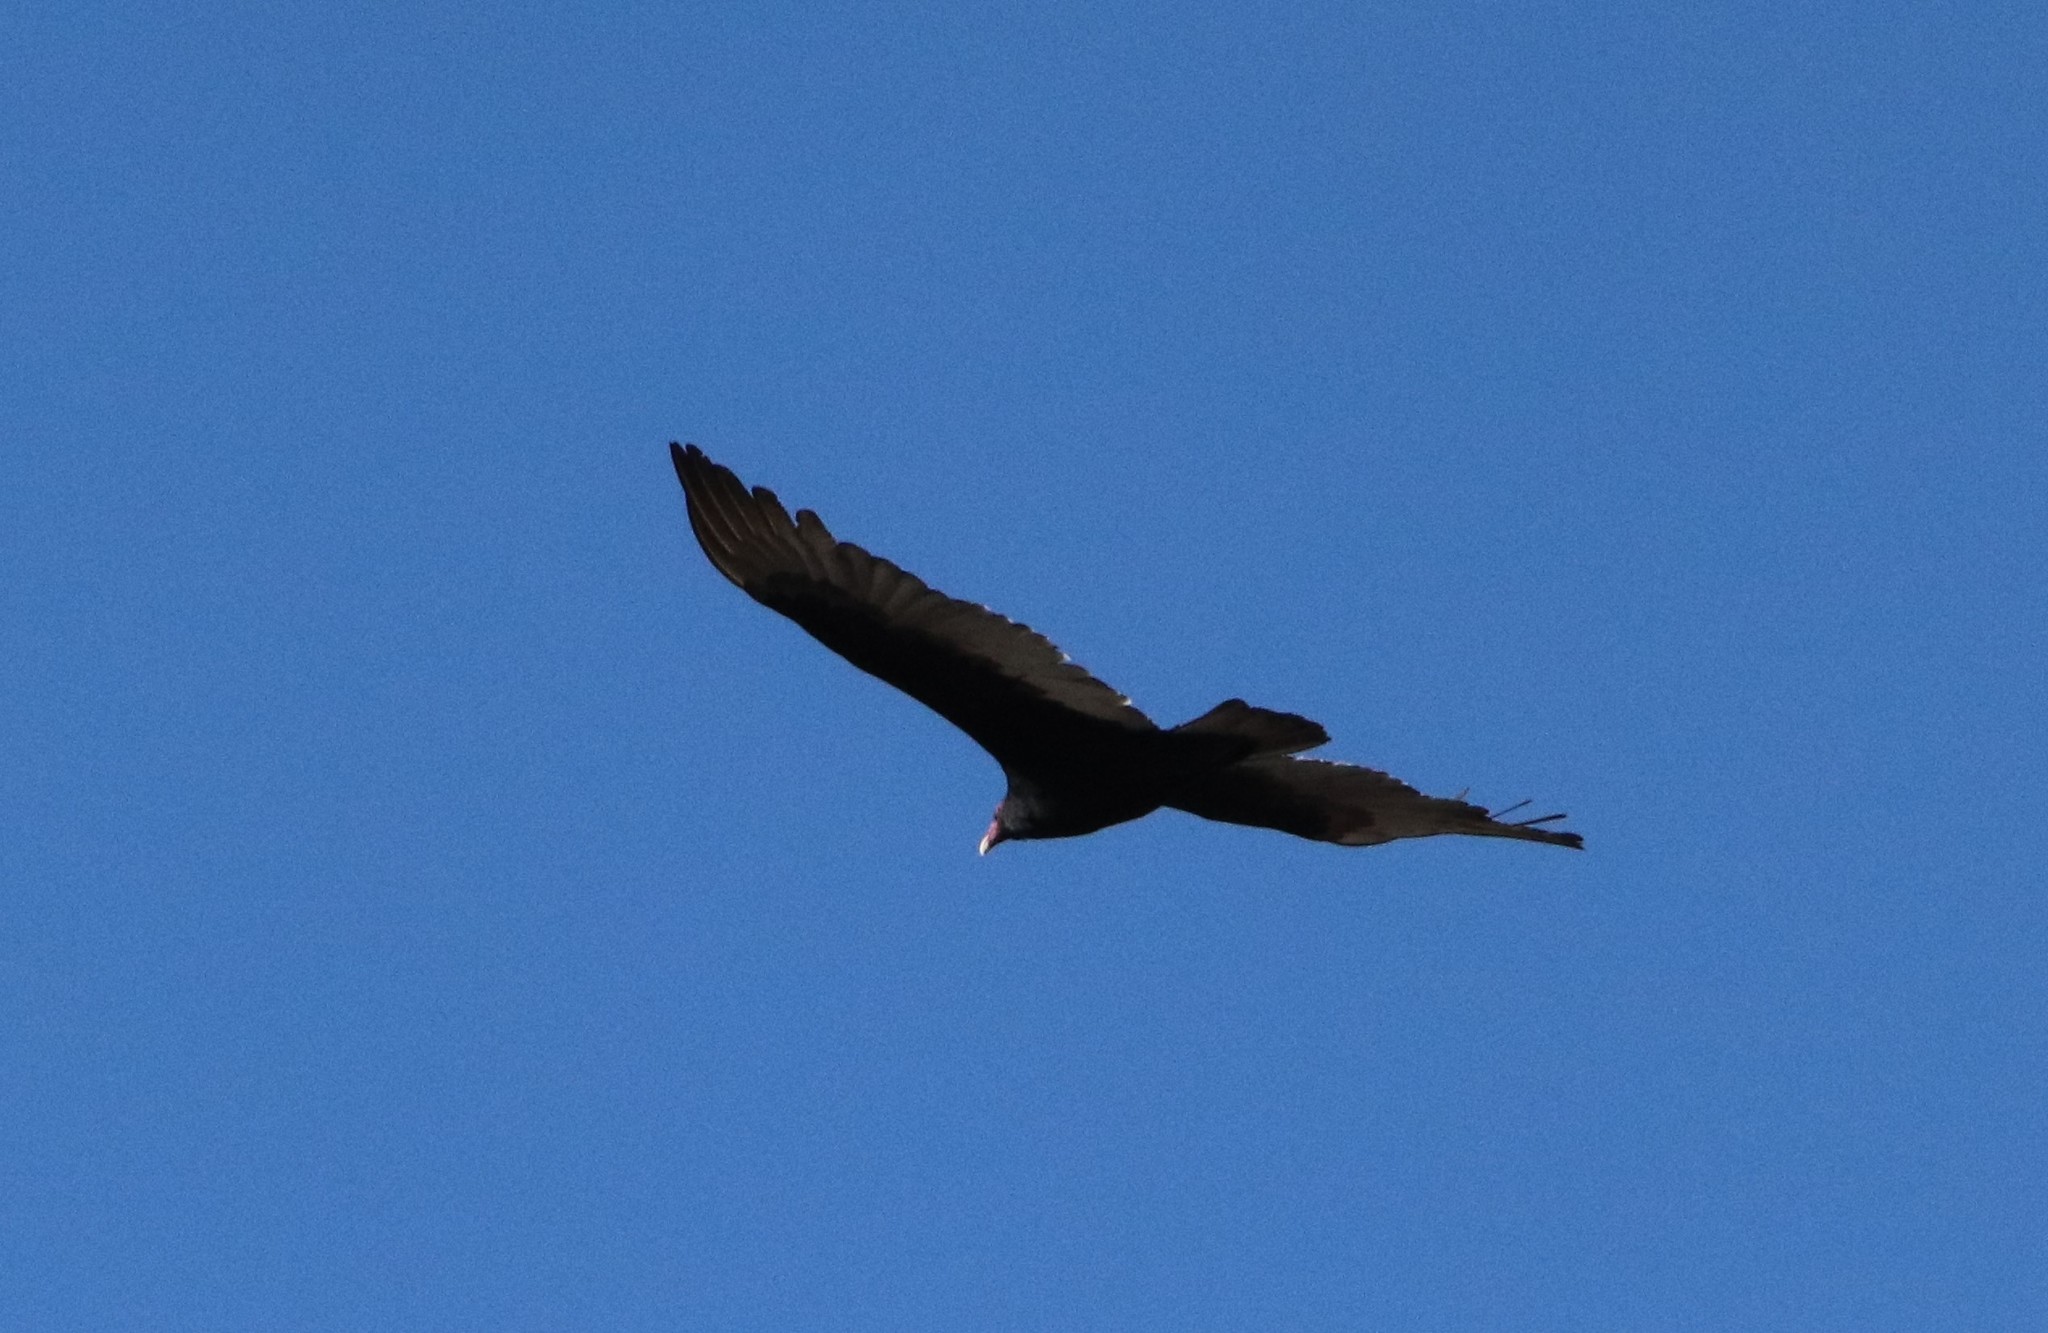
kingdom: Animalia
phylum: Chordata
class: Aves
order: Accipitriformes
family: Cathartidae
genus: Cathartes
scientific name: Cathartes aura
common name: Turkey vulture
